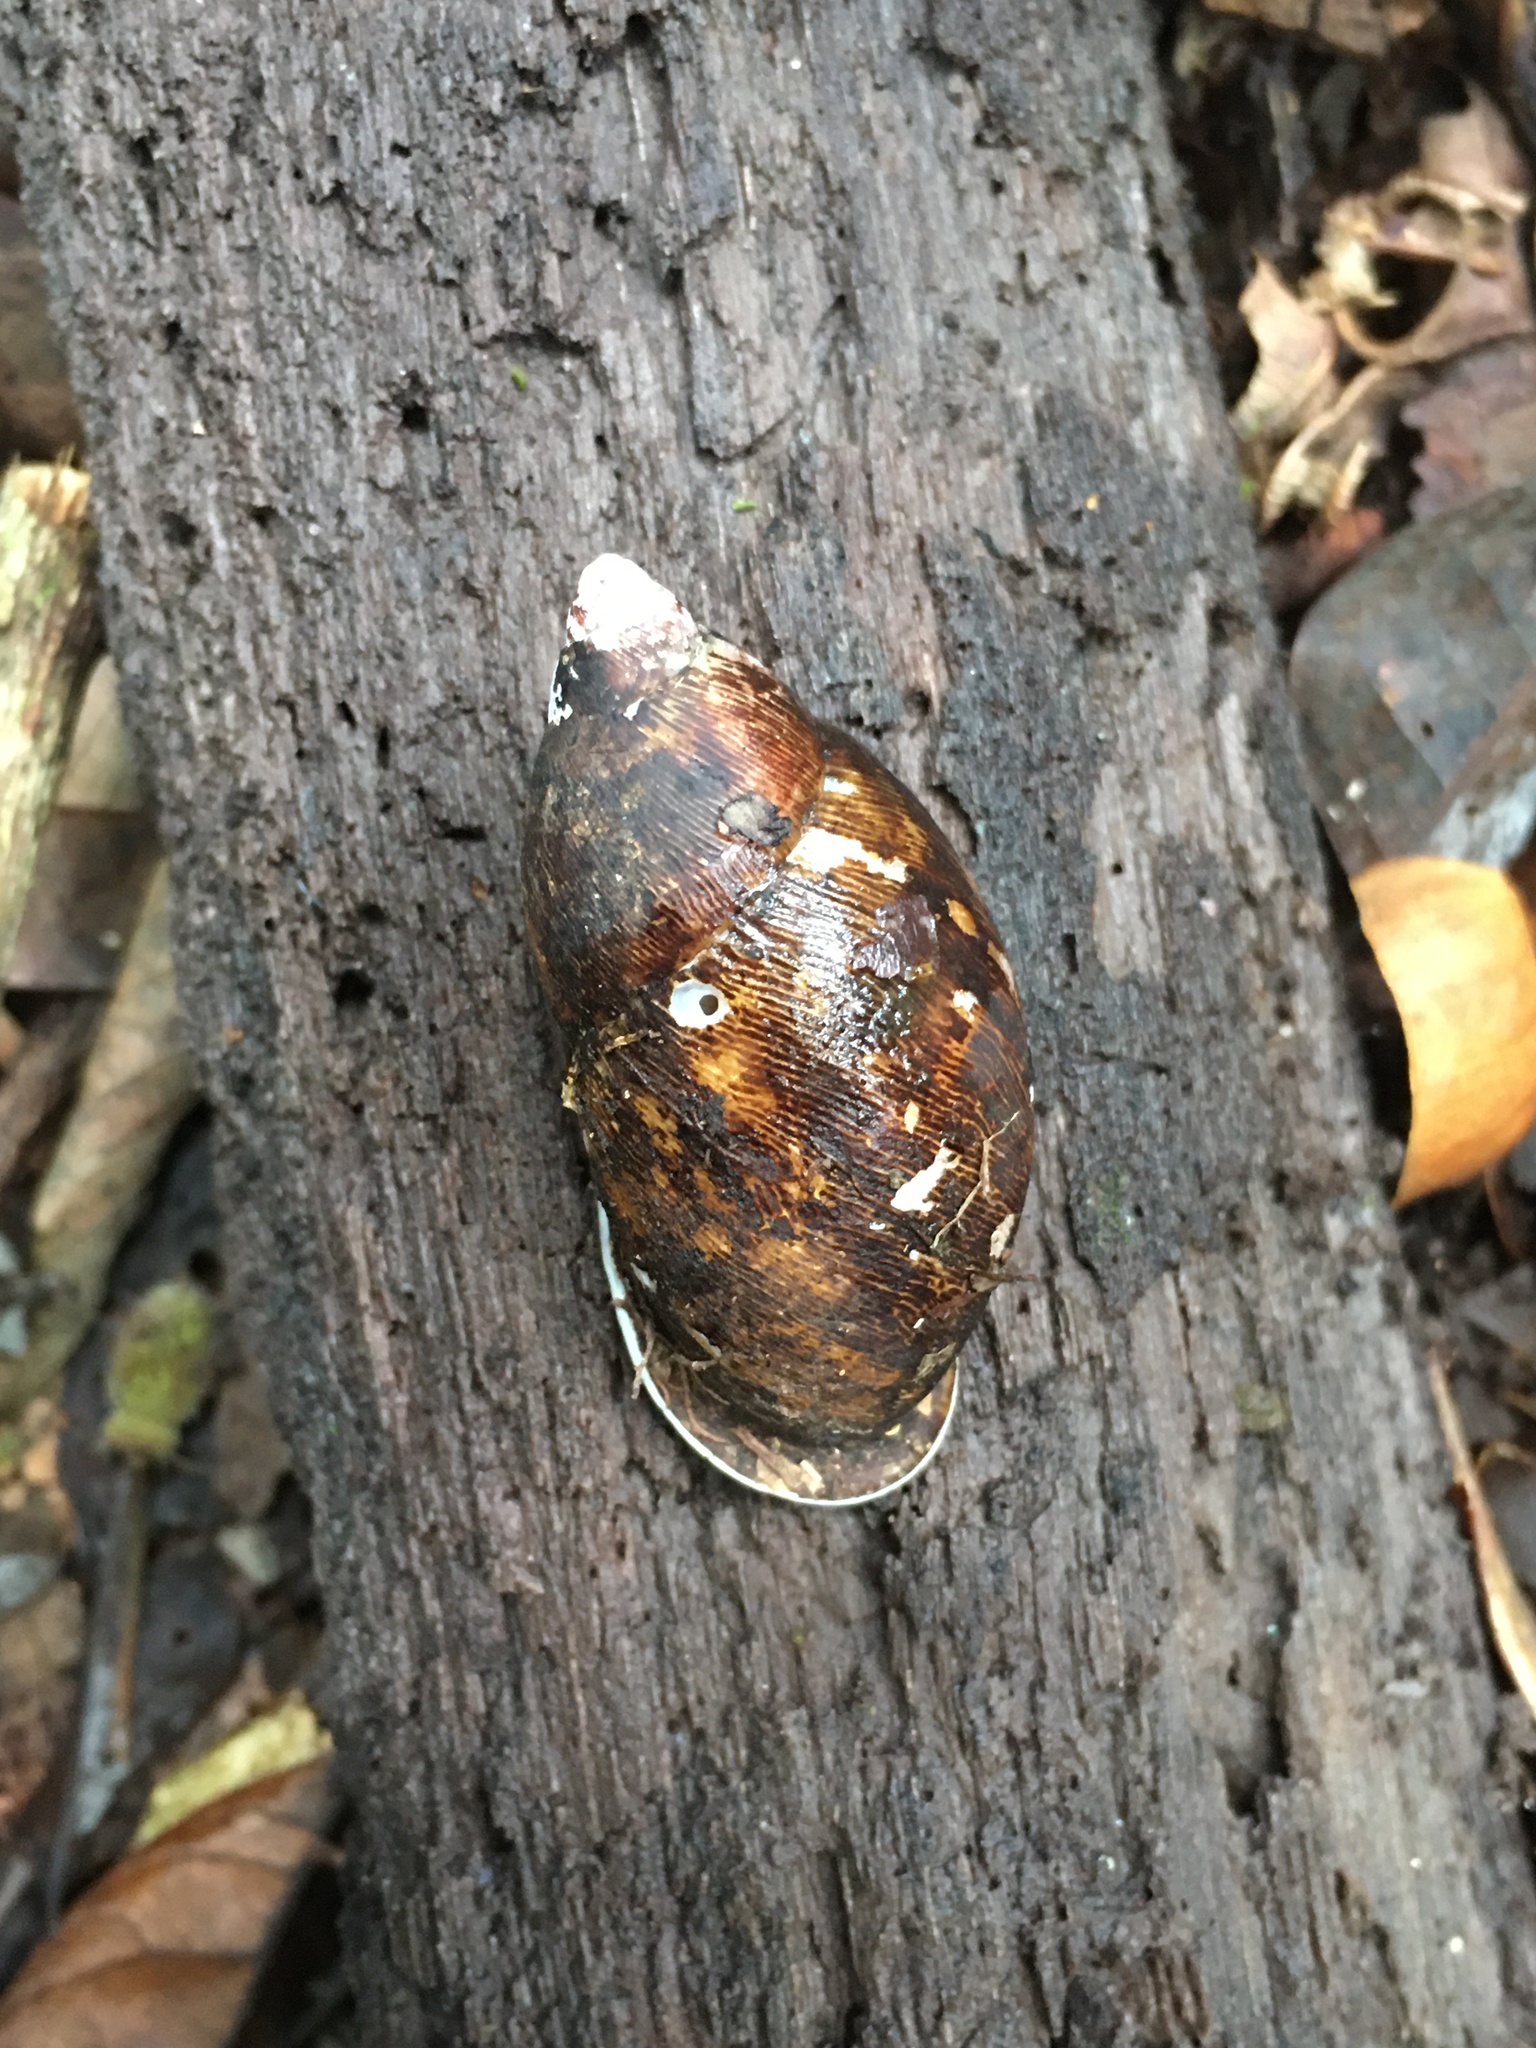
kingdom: Animalia
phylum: Mollusca
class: Gastropoda
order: Stylommatophora
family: Strophocheilidae
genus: Strophocheilus
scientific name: Strophocheilus pudicus
